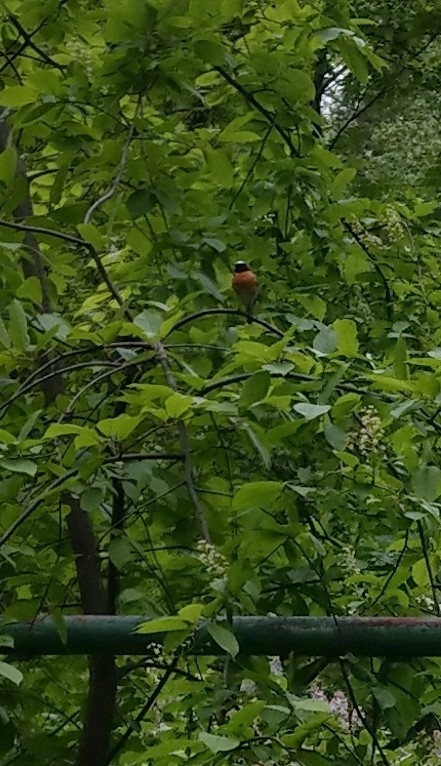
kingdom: Animalia
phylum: Chordata
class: Aves
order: Passeriformes
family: Muscicapidae
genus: Phoenicurus
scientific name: Phoenicurus phoenicurus
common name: Common redstart
